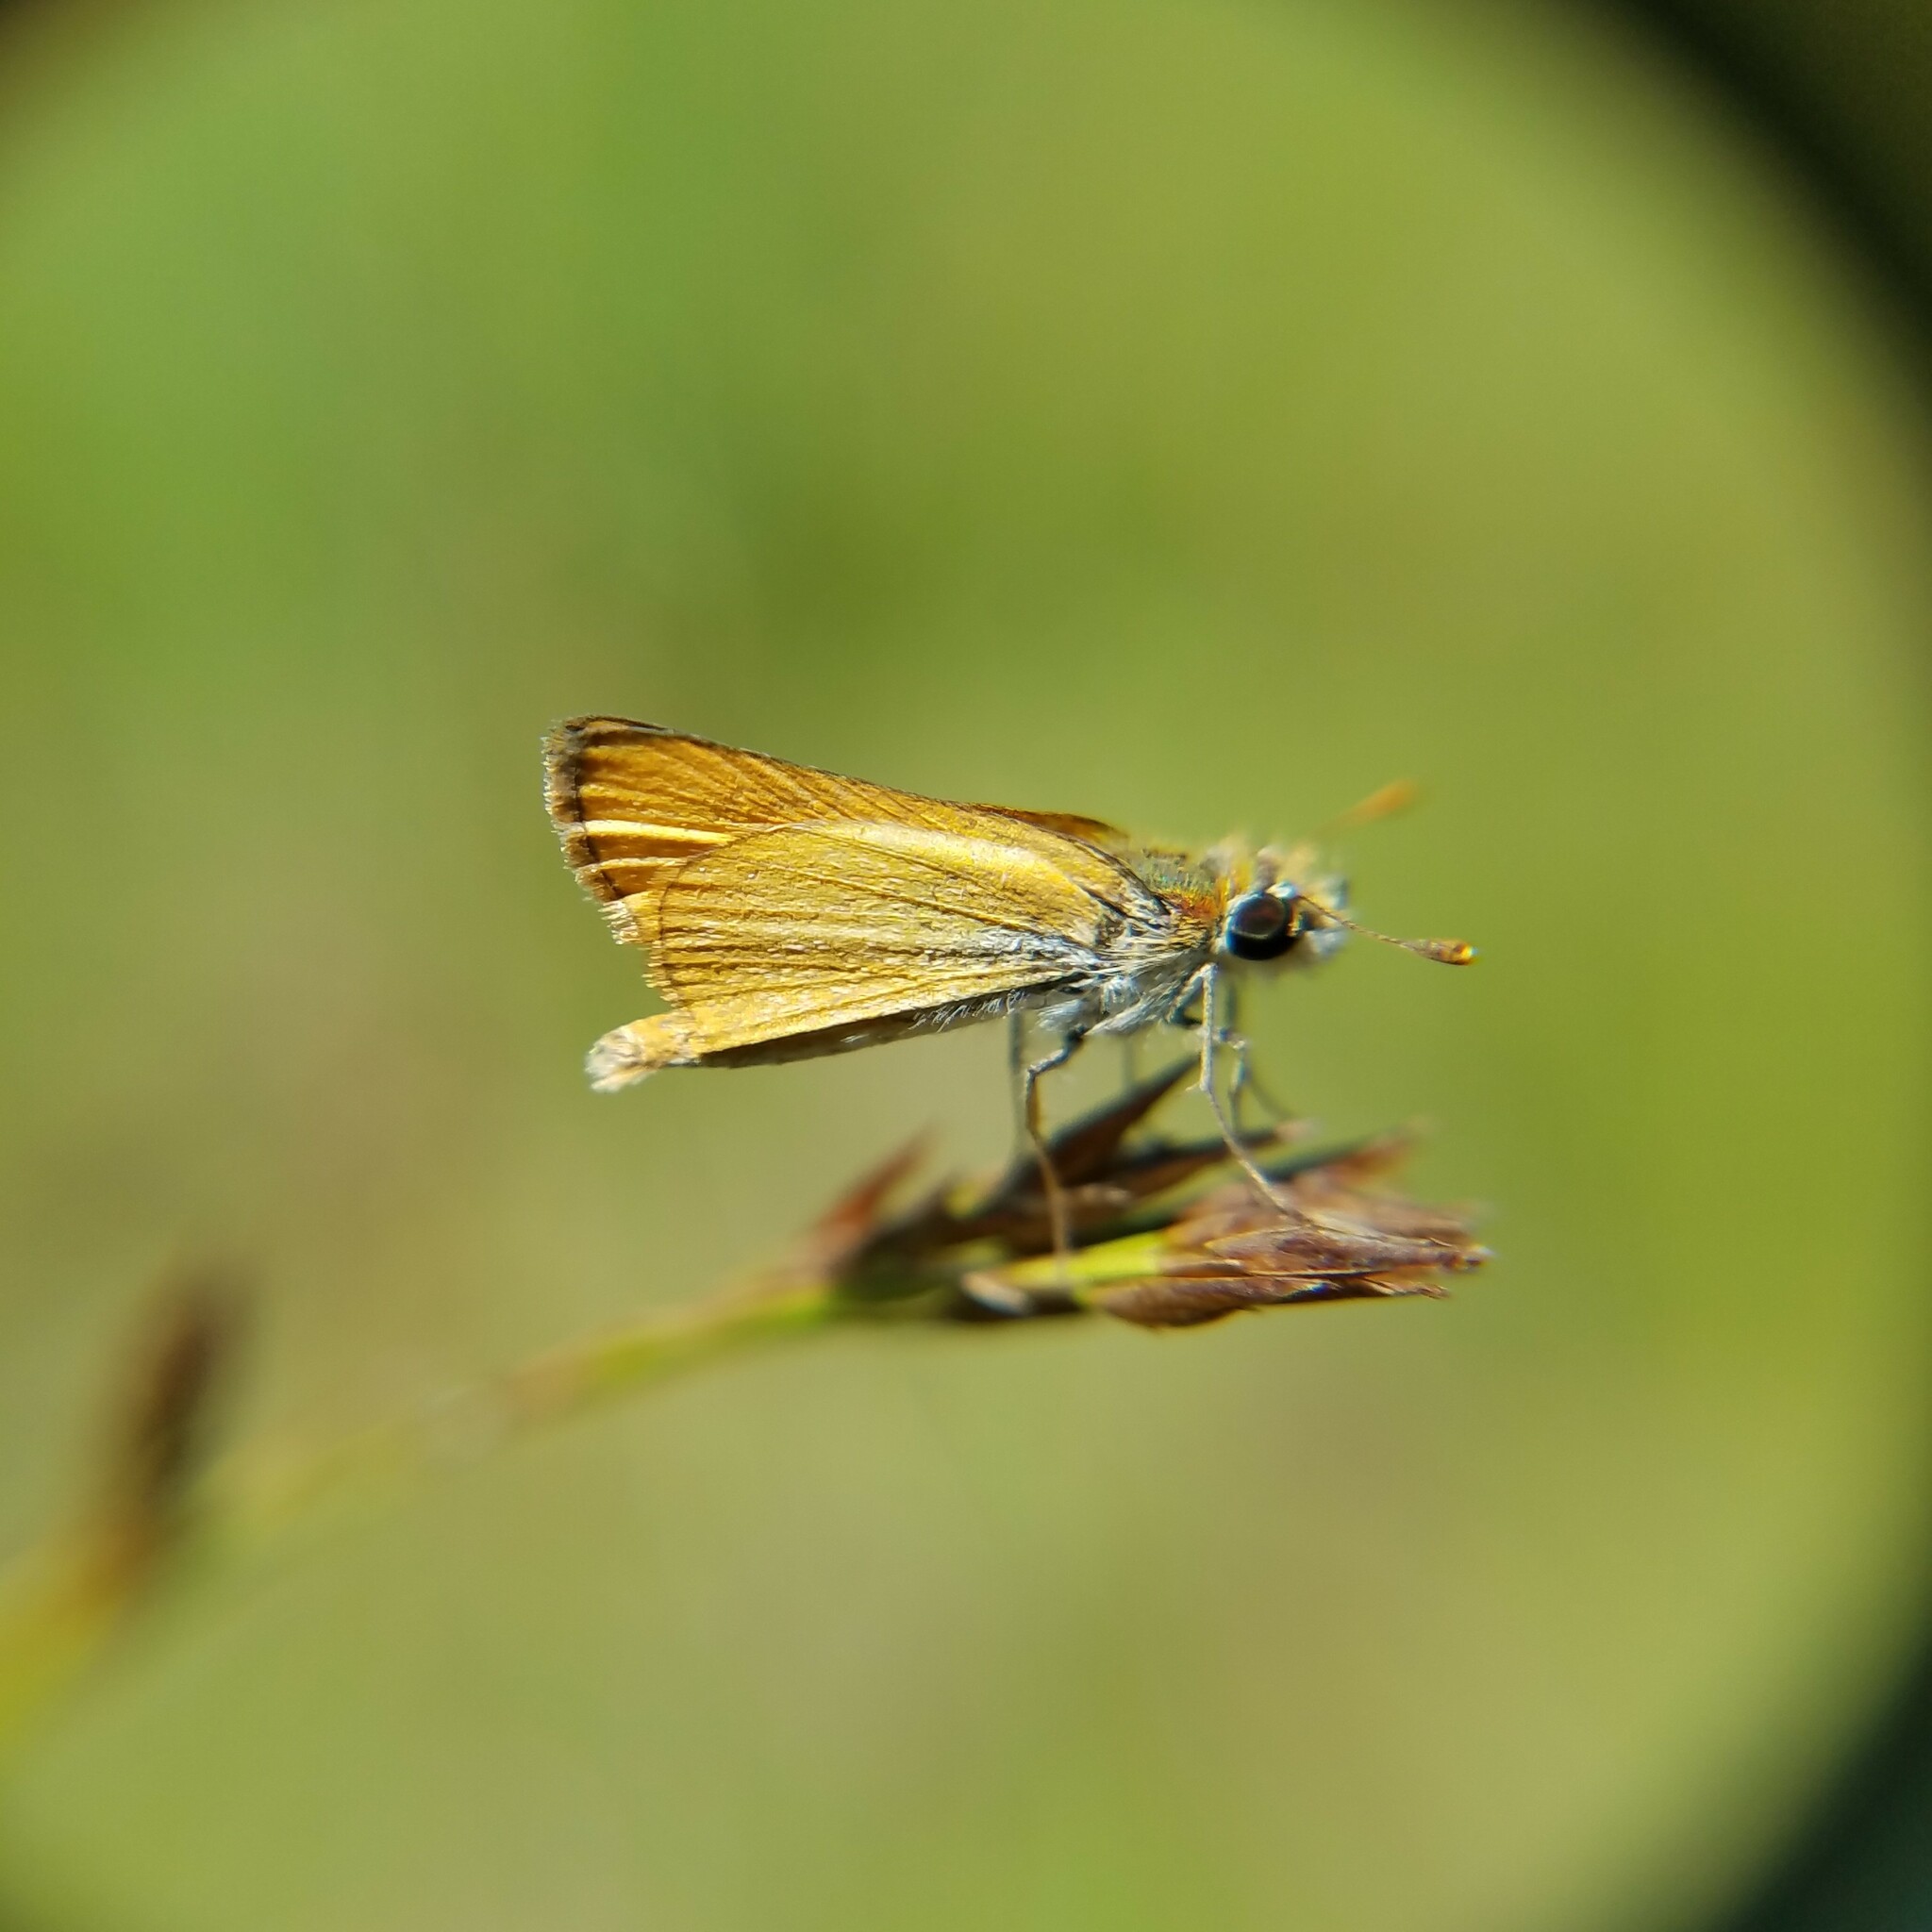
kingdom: Animalia
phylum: Arthropoda
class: Insecta
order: Lepidoptera
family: Hesperiidae
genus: Copaeodes
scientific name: Copaeodes minima
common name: Southern skipperling
